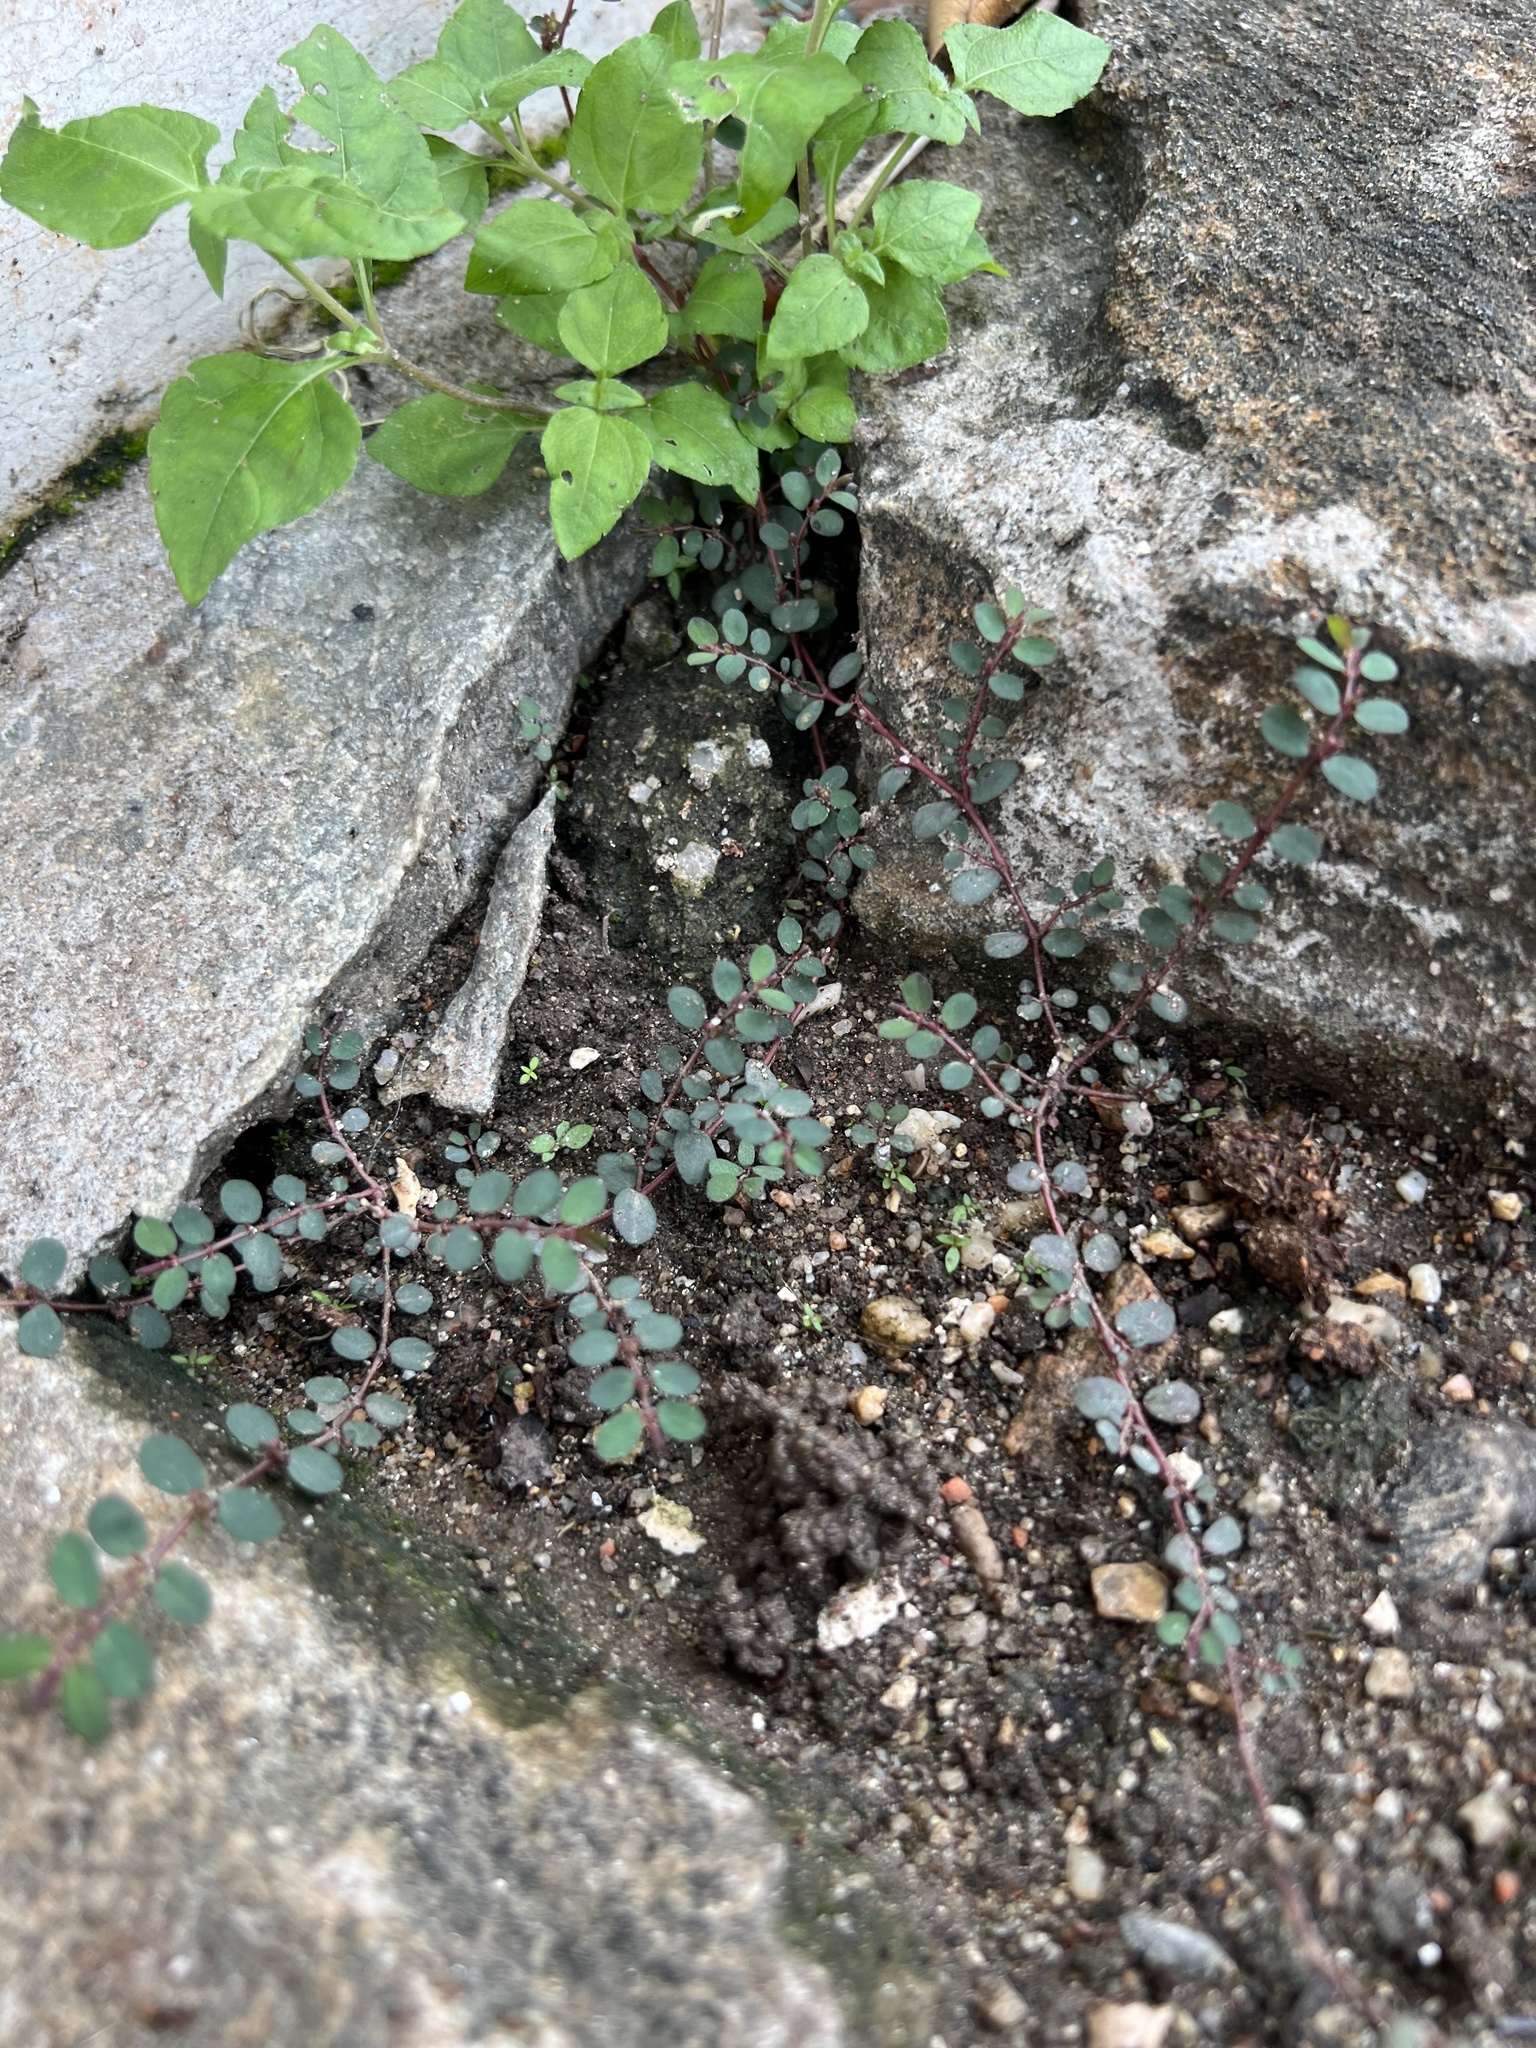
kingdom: Plantae
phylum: Tracheophyta
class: Magnoliopsida
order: Malpighiales
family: Euphorbiaceae
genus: Euphorbia
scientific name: Euphorbia thymifolia
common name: Gulf sandmat
